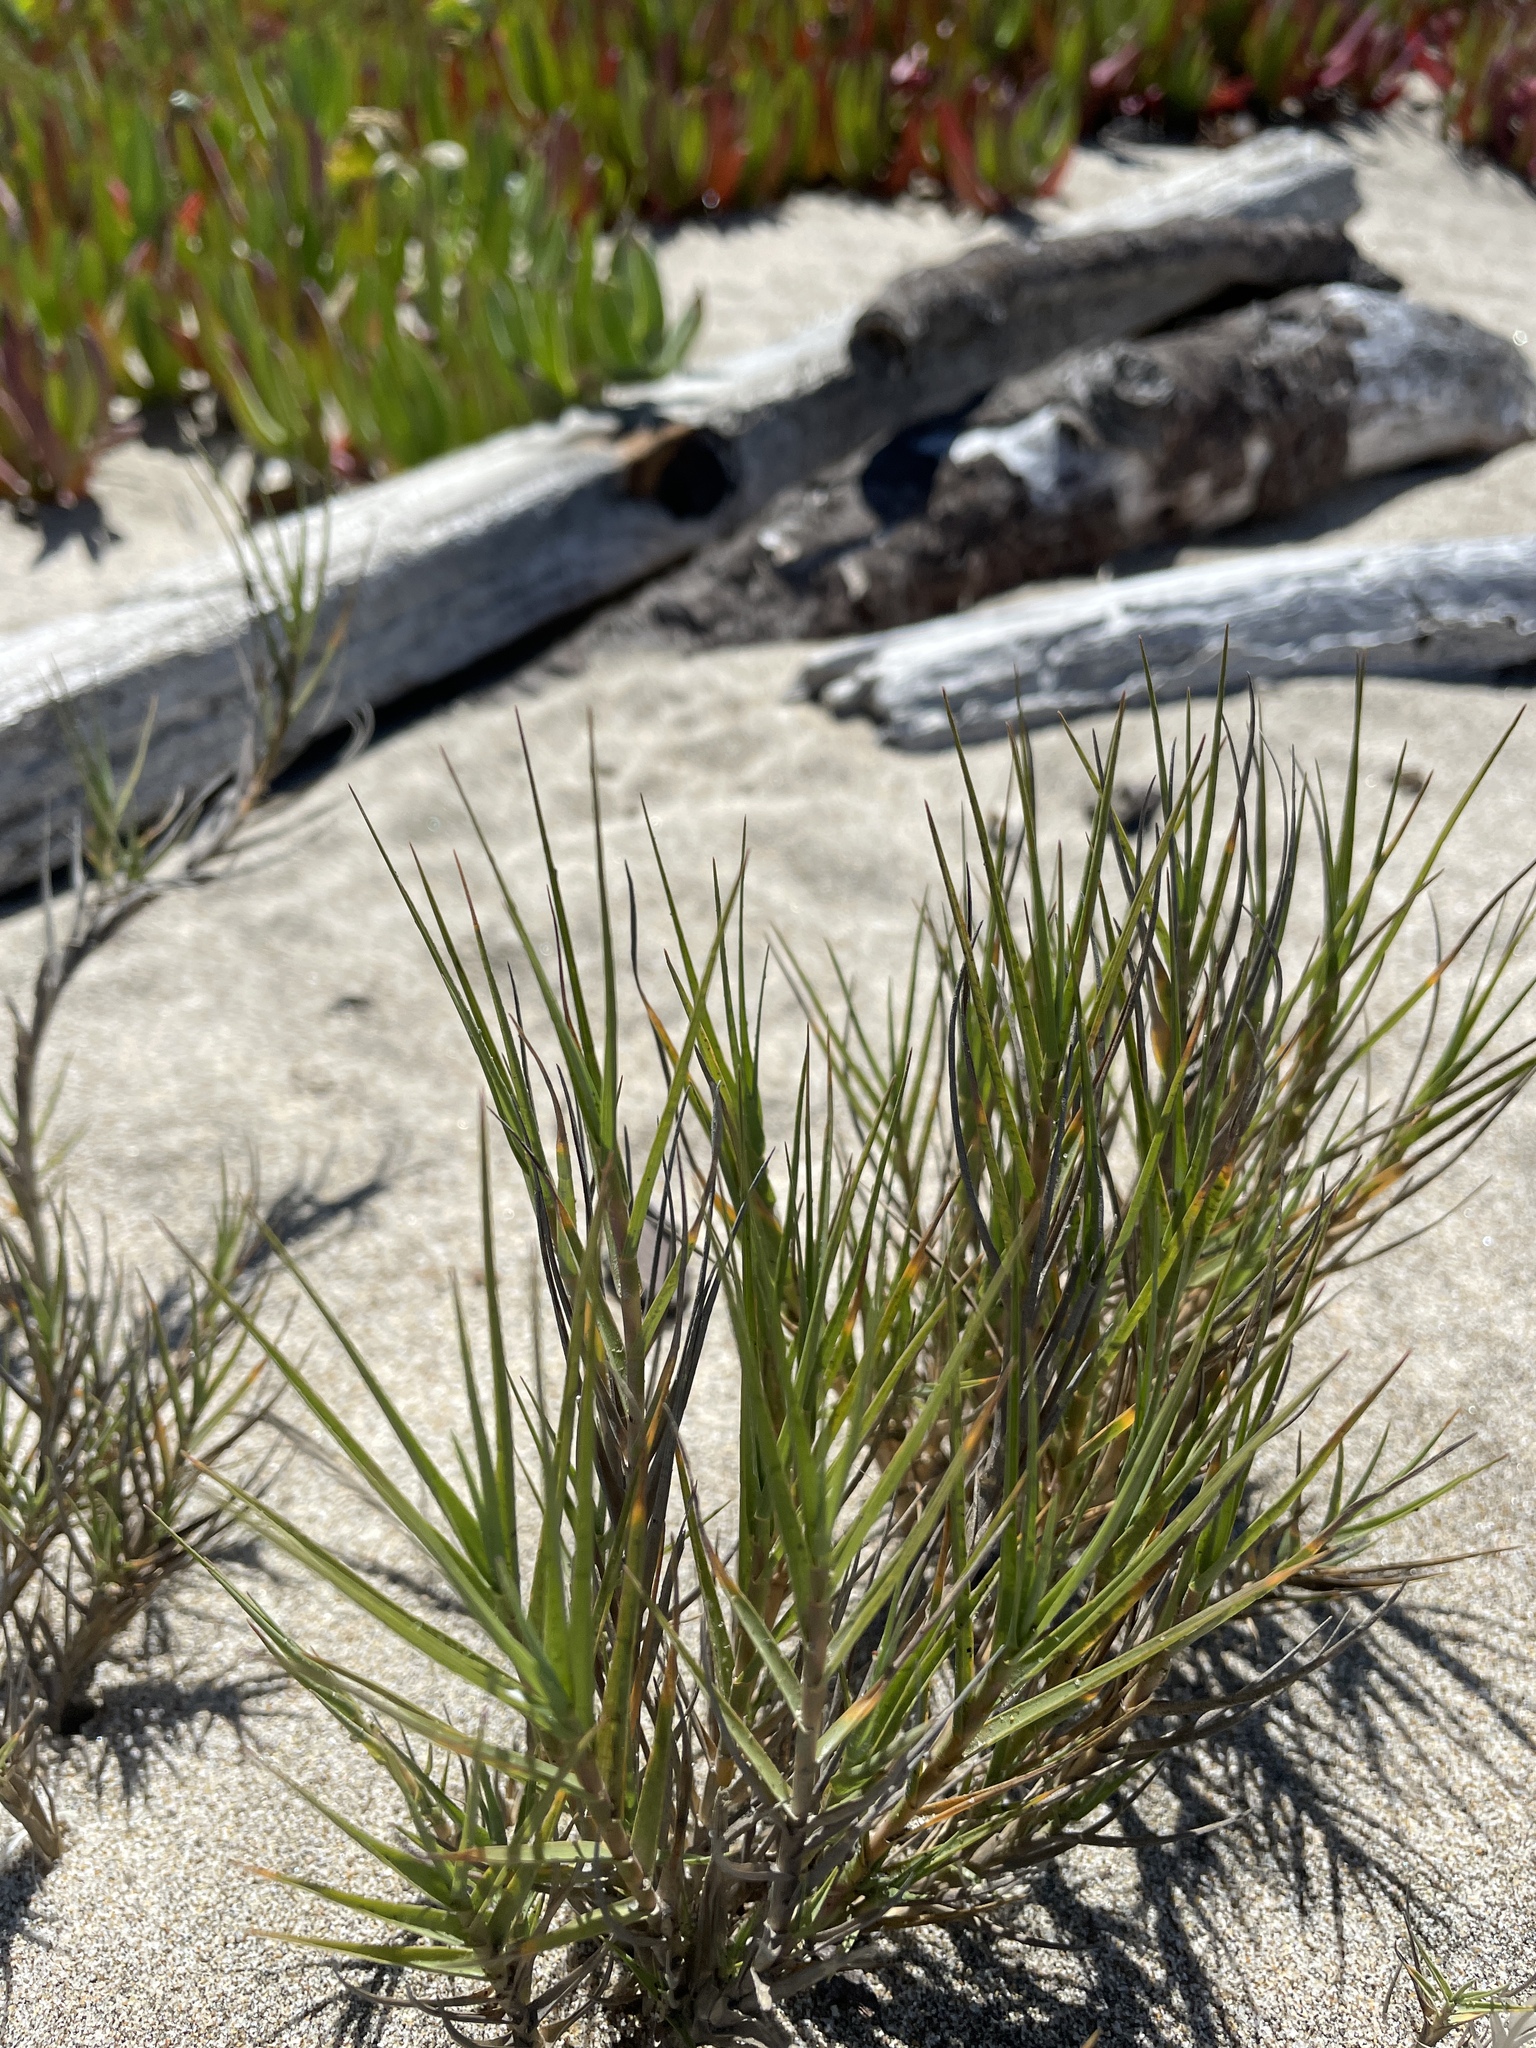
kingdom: Plantae
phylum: Tracheophyta
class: Liliopsida
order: Poales
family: Poaceae
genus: Distichlis
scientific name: Distichlis spicata
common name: Saltgrass
